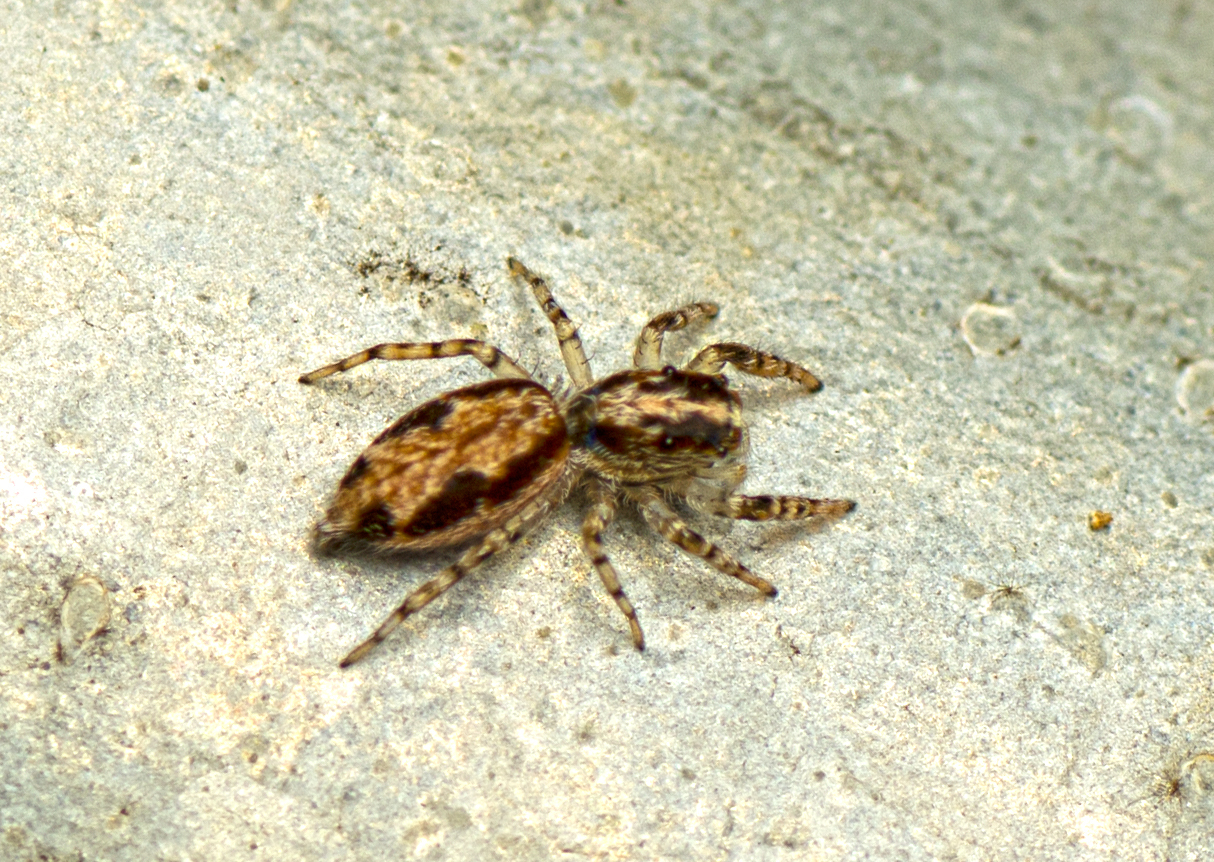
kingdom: Animalia
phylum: Arthropoda
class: Arachnida
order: Araneae
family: Salticidae
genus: Apricia
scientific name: Apricia bracteata
